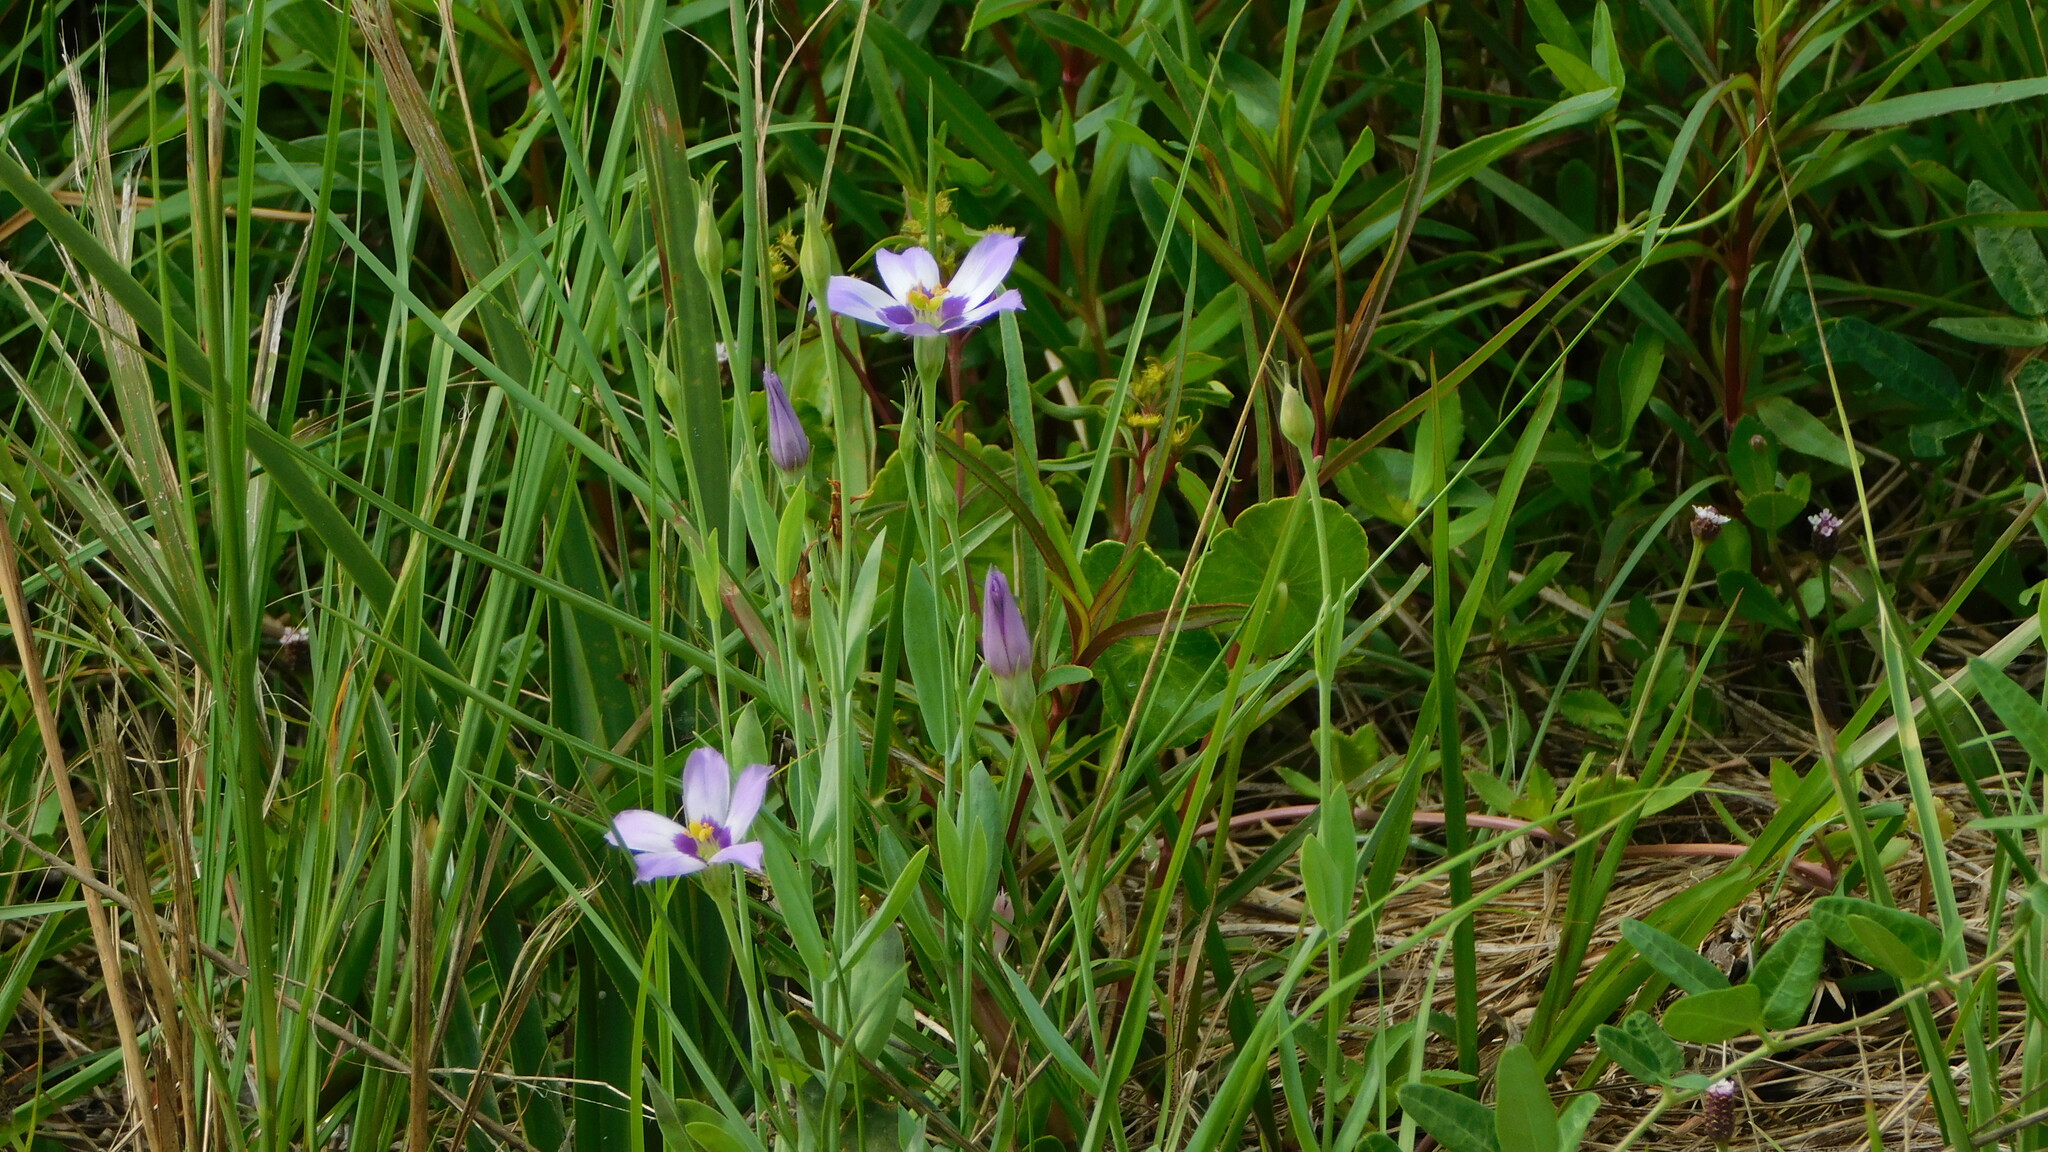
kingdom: Plantae
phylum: Tracheophyta
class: Magnoliopsida
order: Gentianales
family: Gentianaceae
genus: Eustoma
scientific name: Eustoma exaltatum
